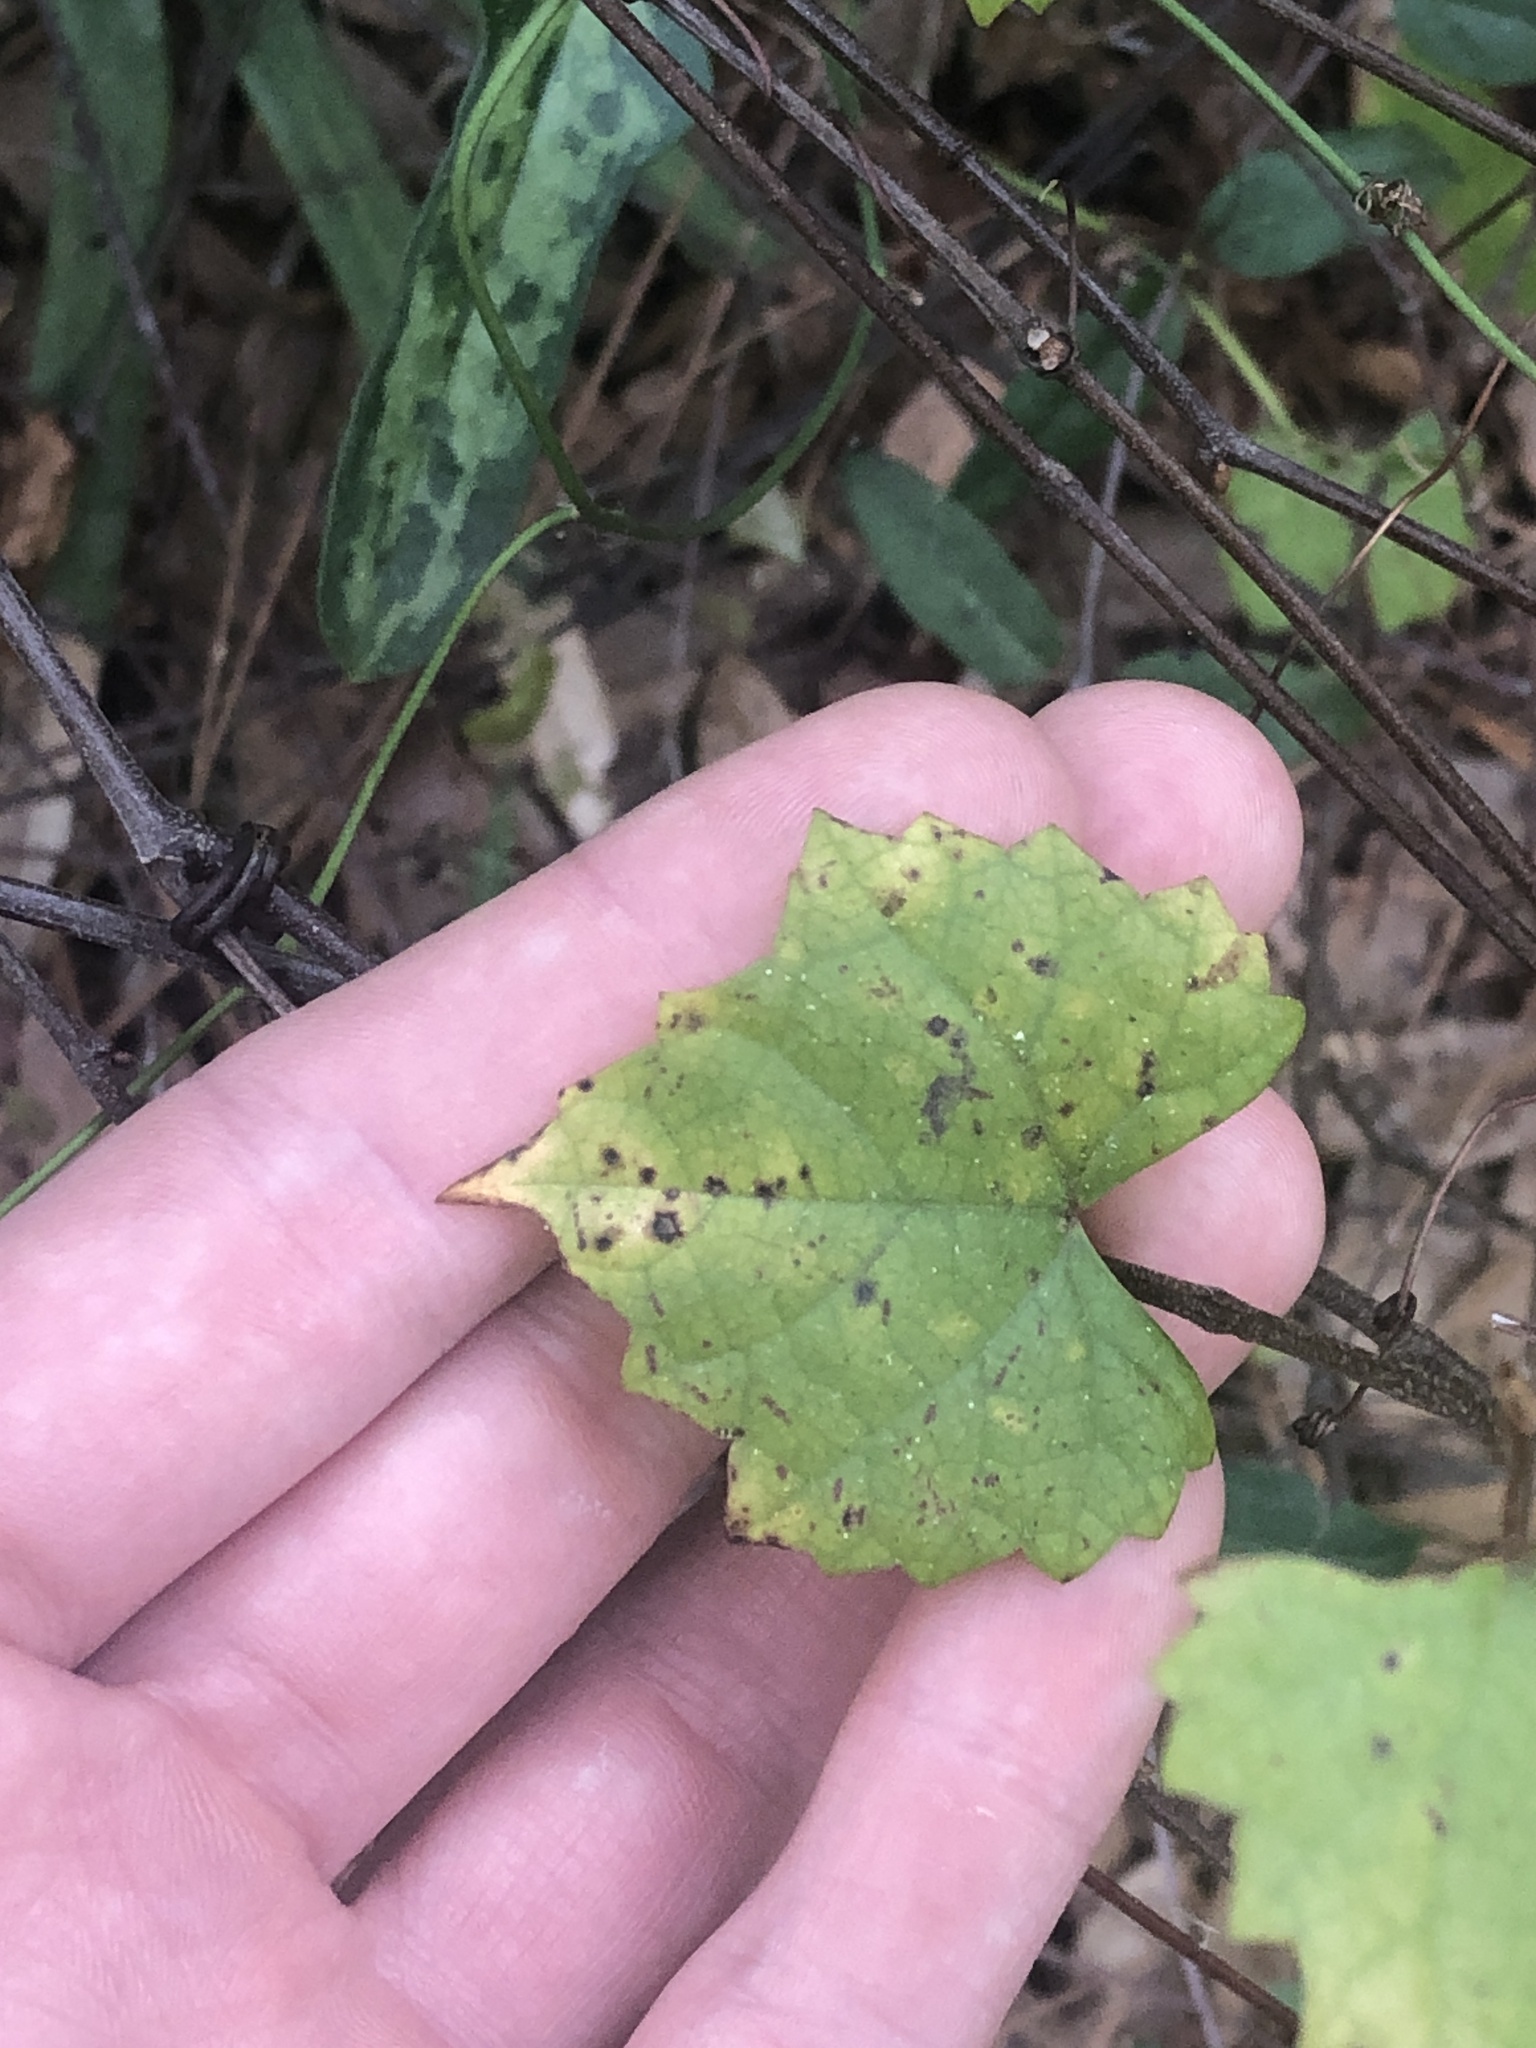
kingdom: Plantae
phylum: Tracheophyta
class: Magnoliopsida
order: Vitales
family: Vitaceae
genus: Vitis
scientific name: Vitis rotundifolia
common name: Muscadine grape
